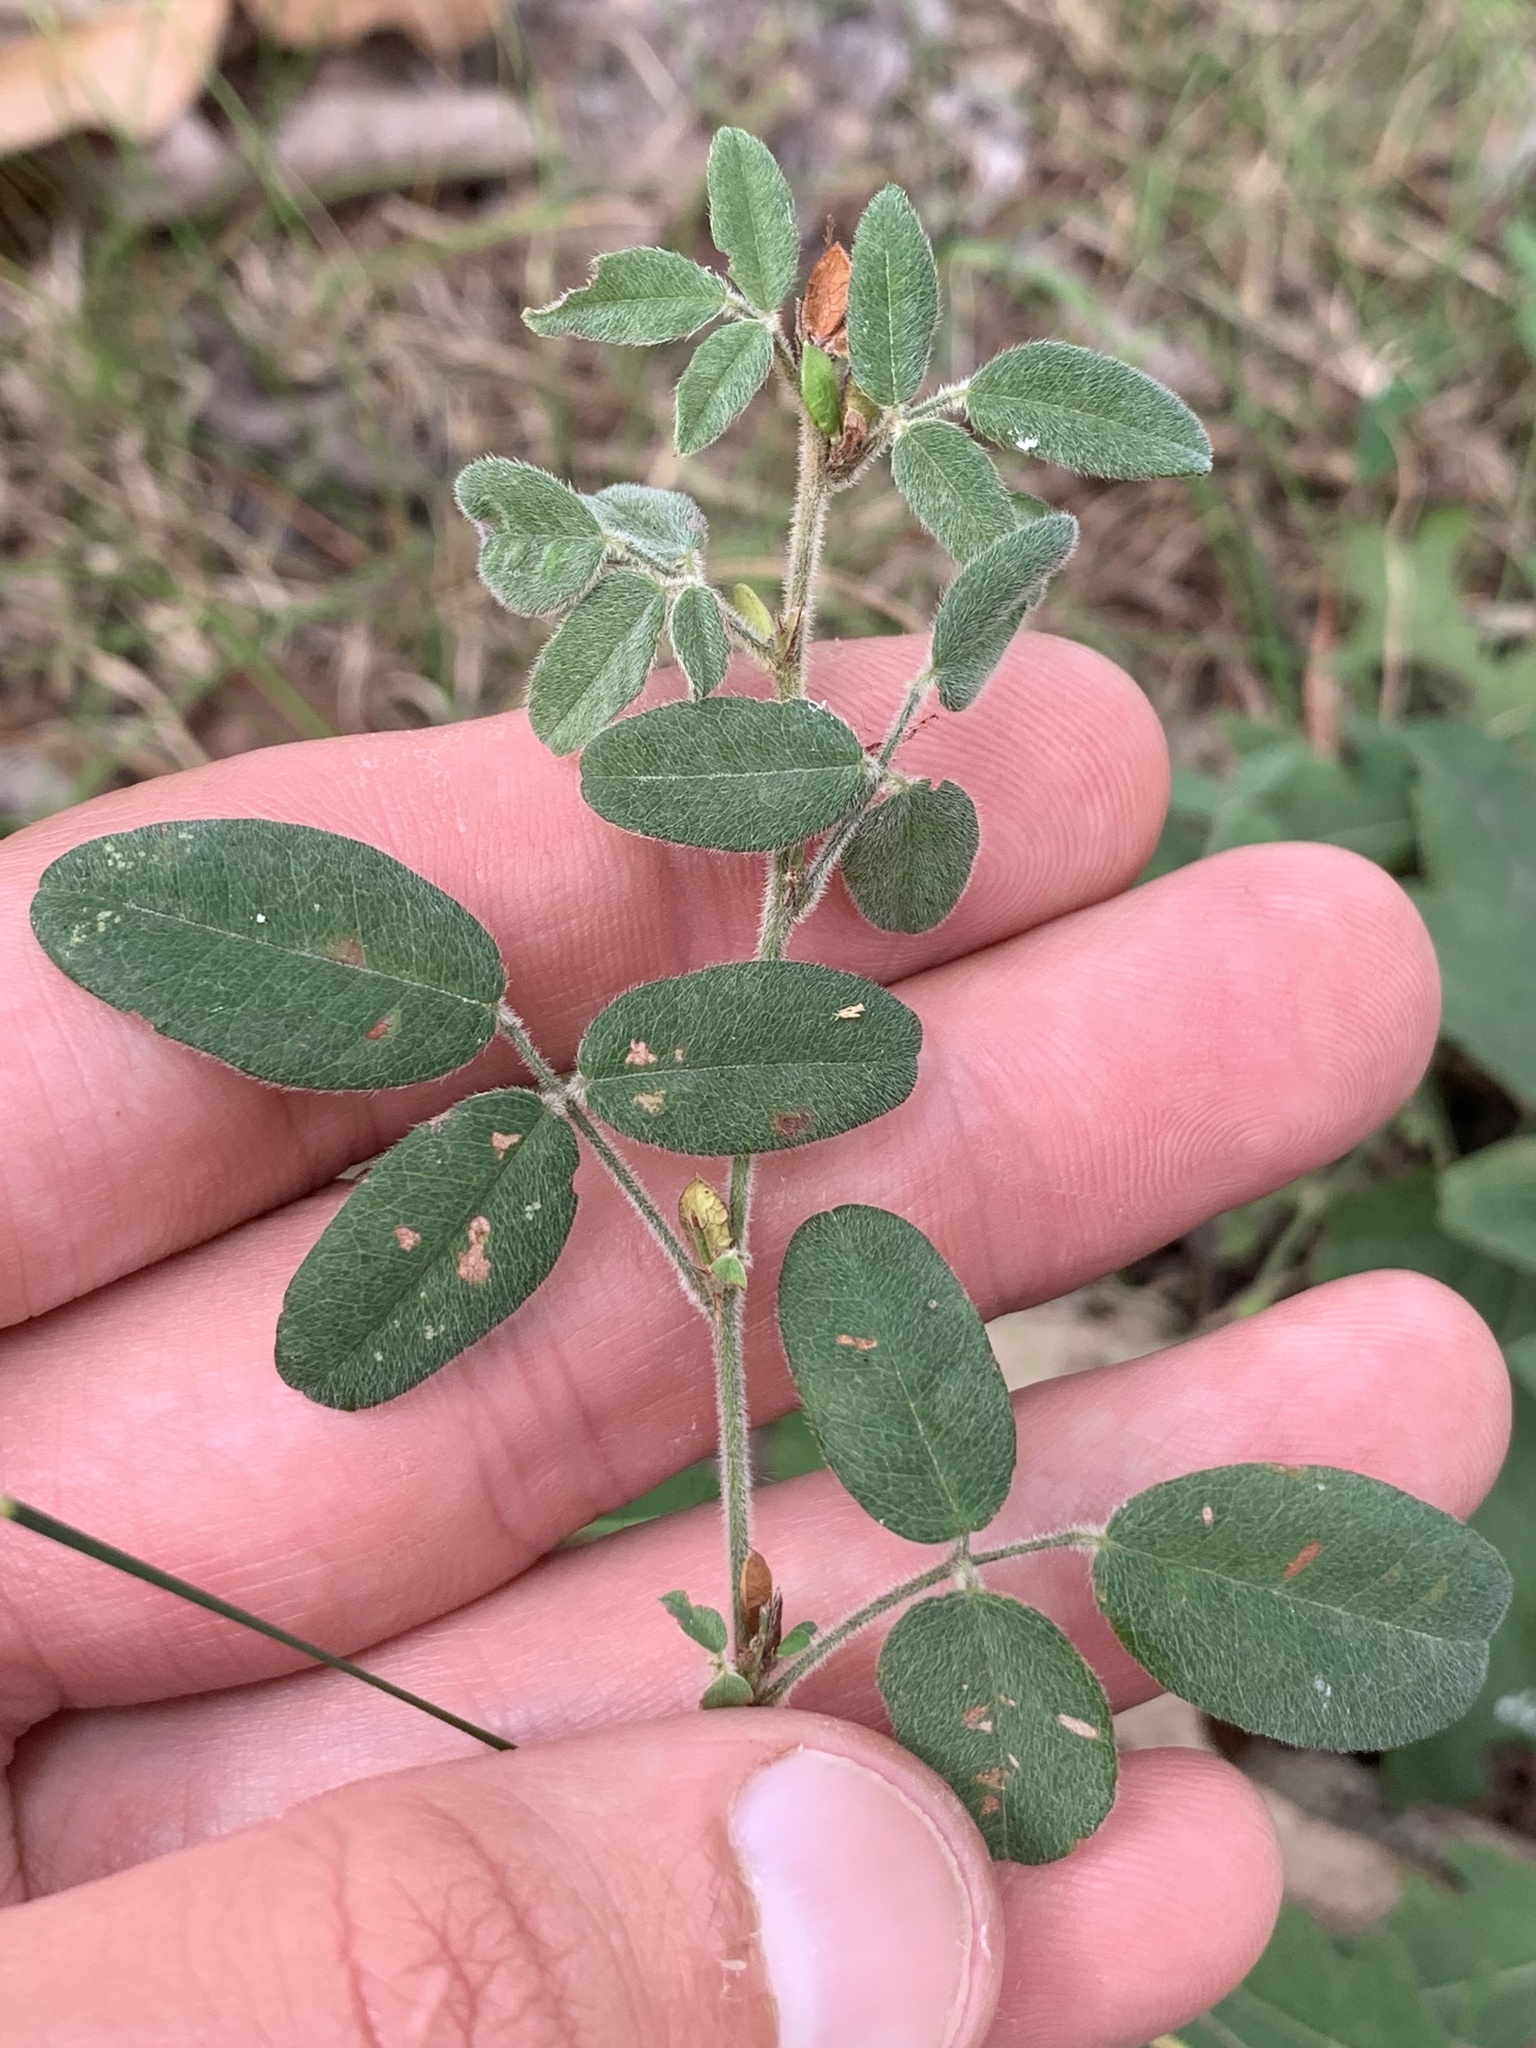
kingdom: Plantae
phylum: Tracheophyta
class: Magnoliopsida
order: Fabales
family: Fabaceae
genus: Lespedeza
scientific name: Lespedeza procumbens
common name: Downy trailing bush-clover
